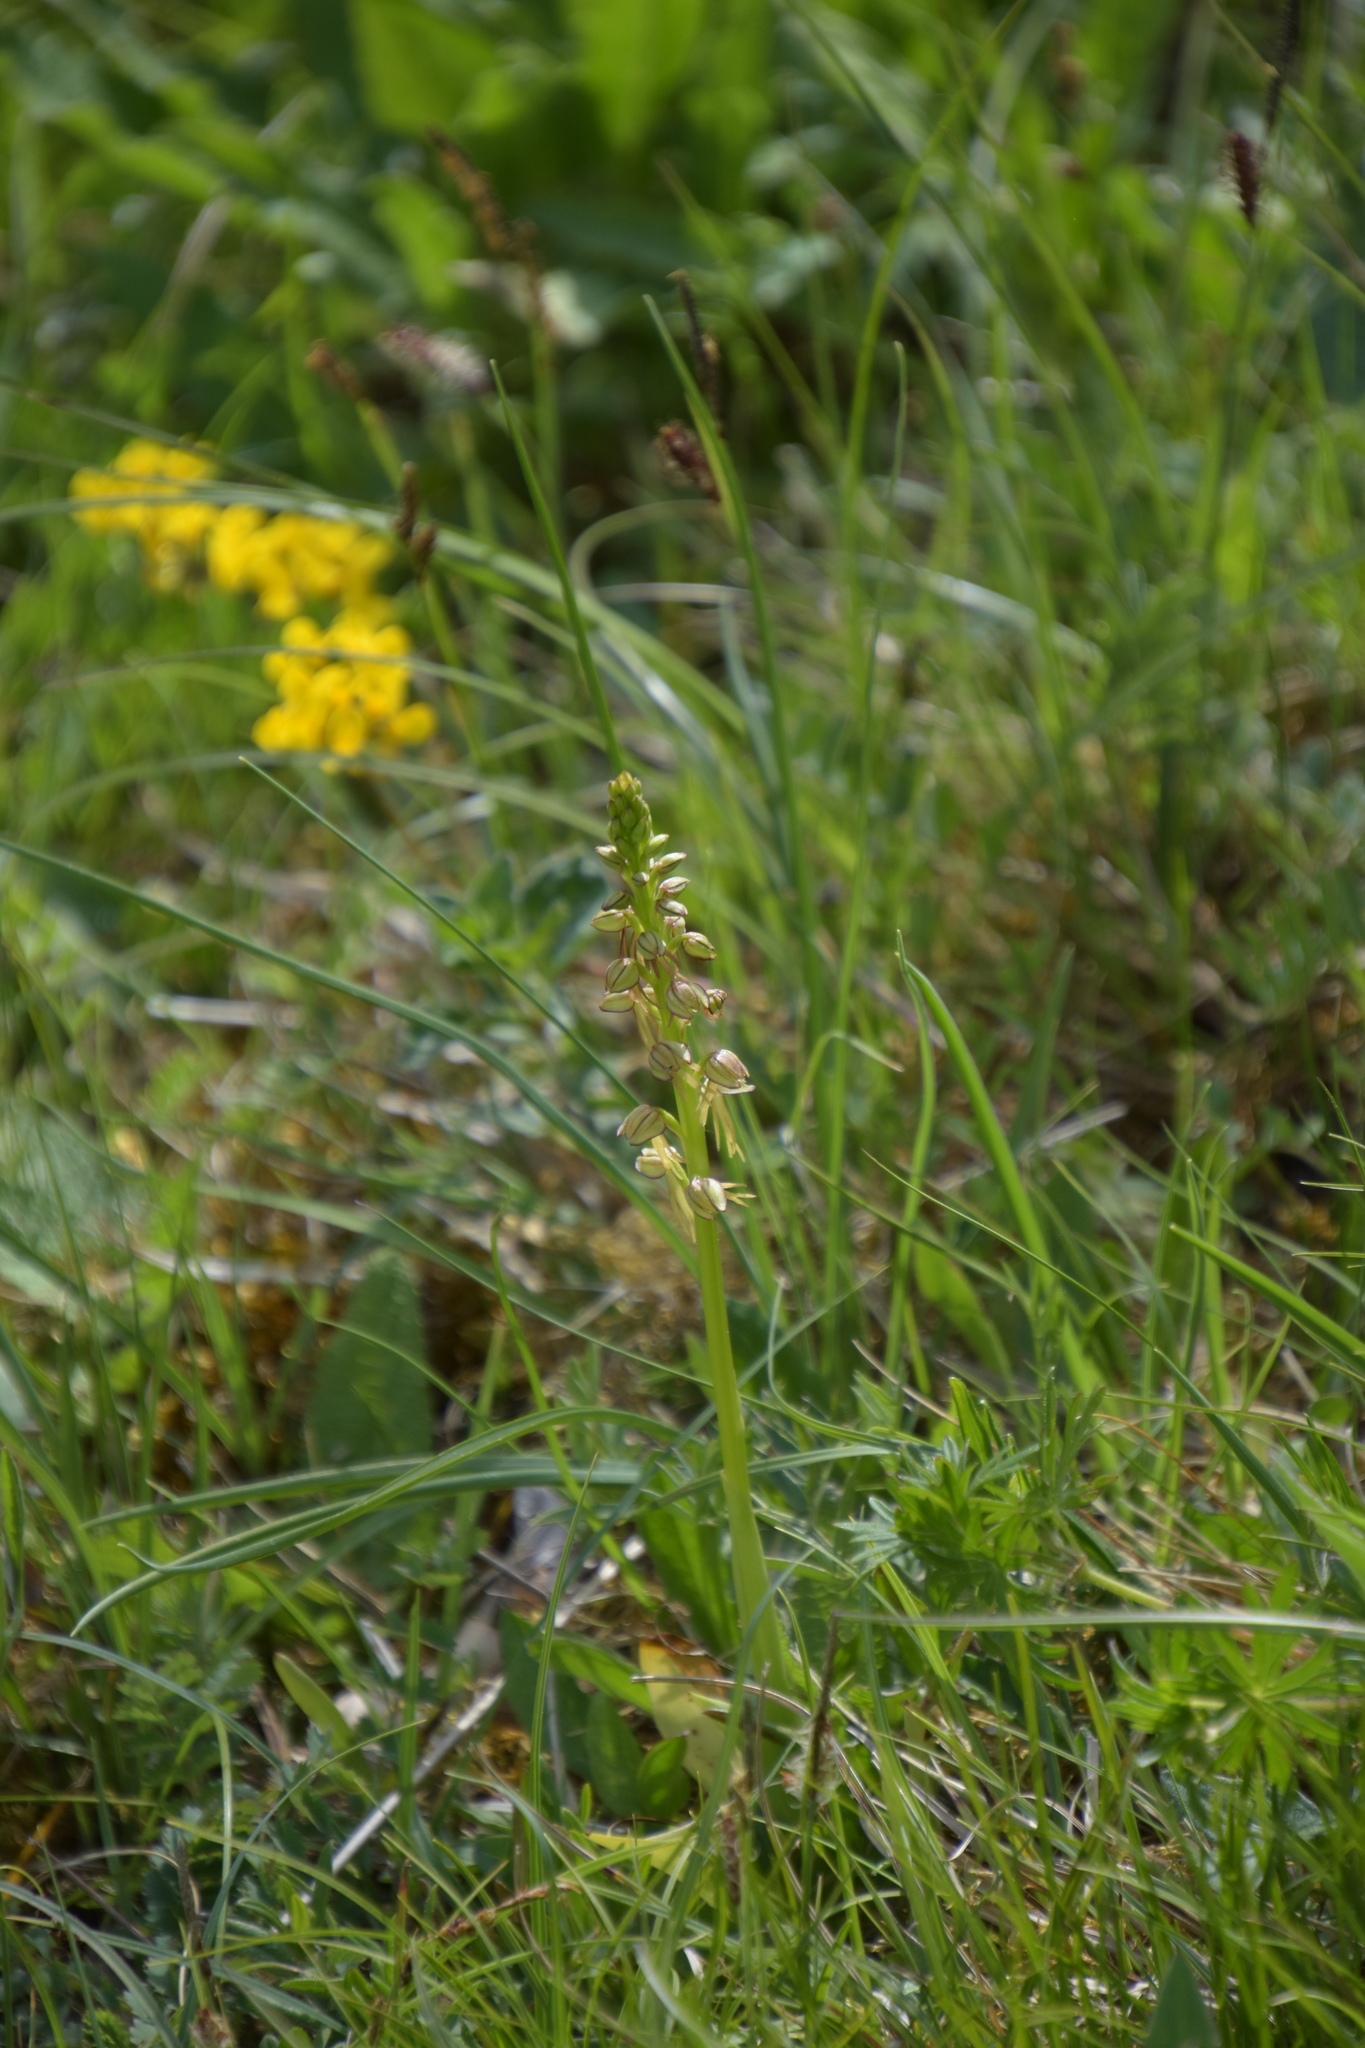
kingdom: Plantae
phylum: Tracheophyta
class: Liliopsida
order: Asparagales
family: Orchidaceae
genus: Orchis
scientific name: Orchis anthropophora
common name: Man orchid
